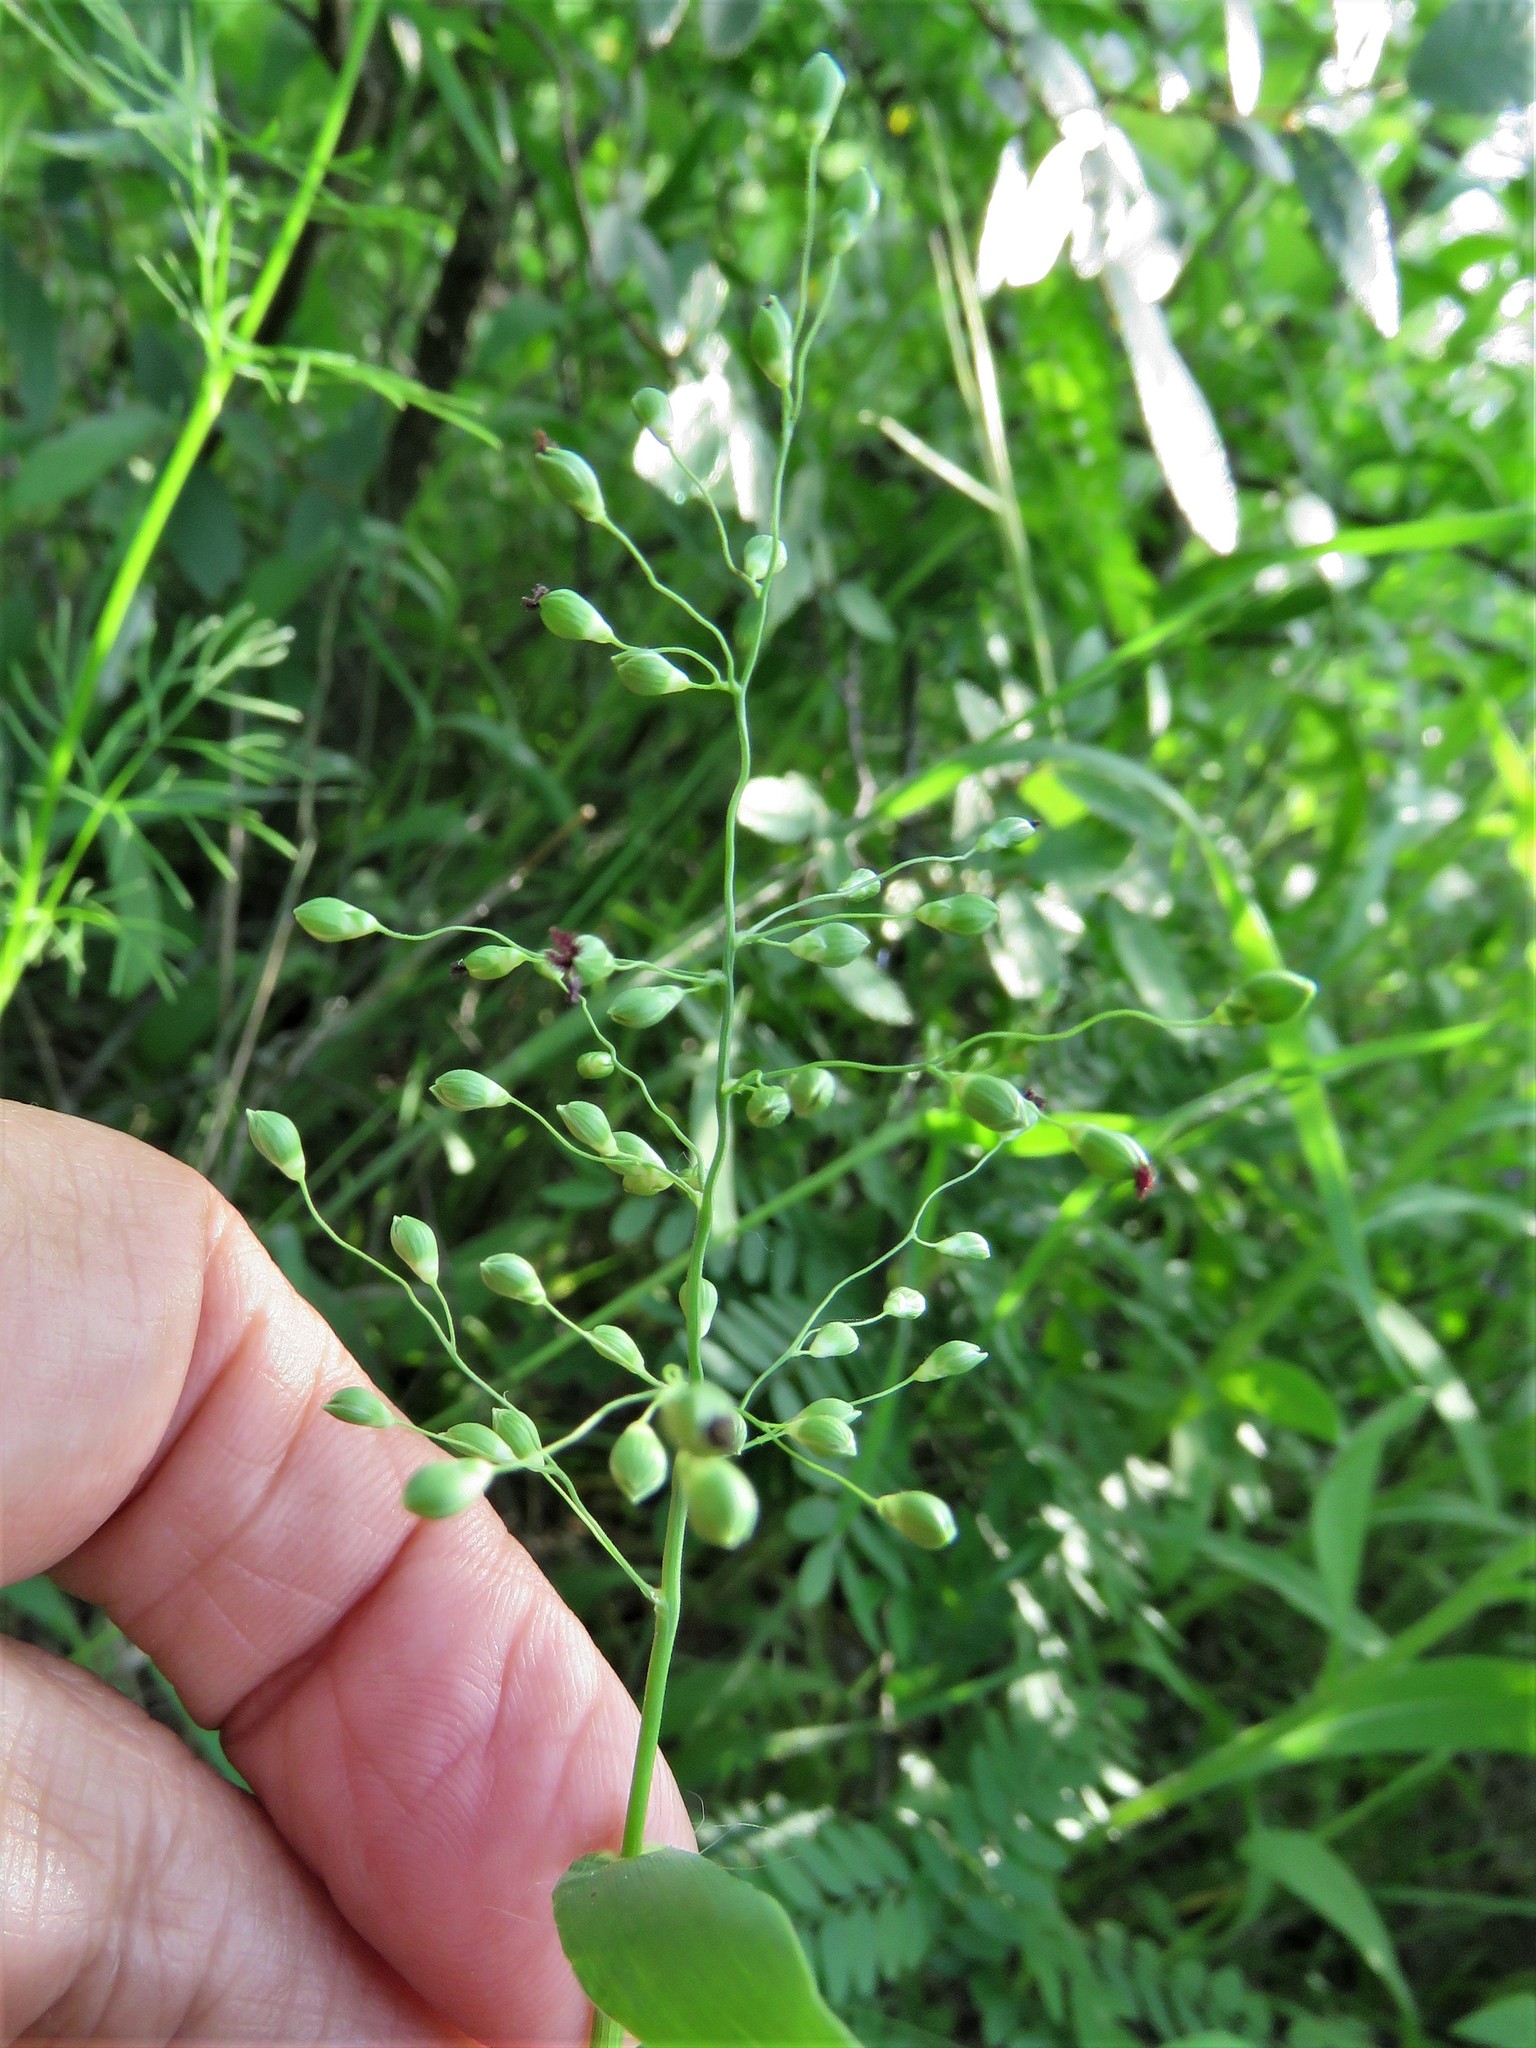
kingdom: Plantae
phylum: Tracheophyta
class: Liliopsida
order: Poales
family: Poaceae
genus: Dichanthelium
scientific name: Dichanthelium oligosanthes
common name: Few-anther obscuregrass
